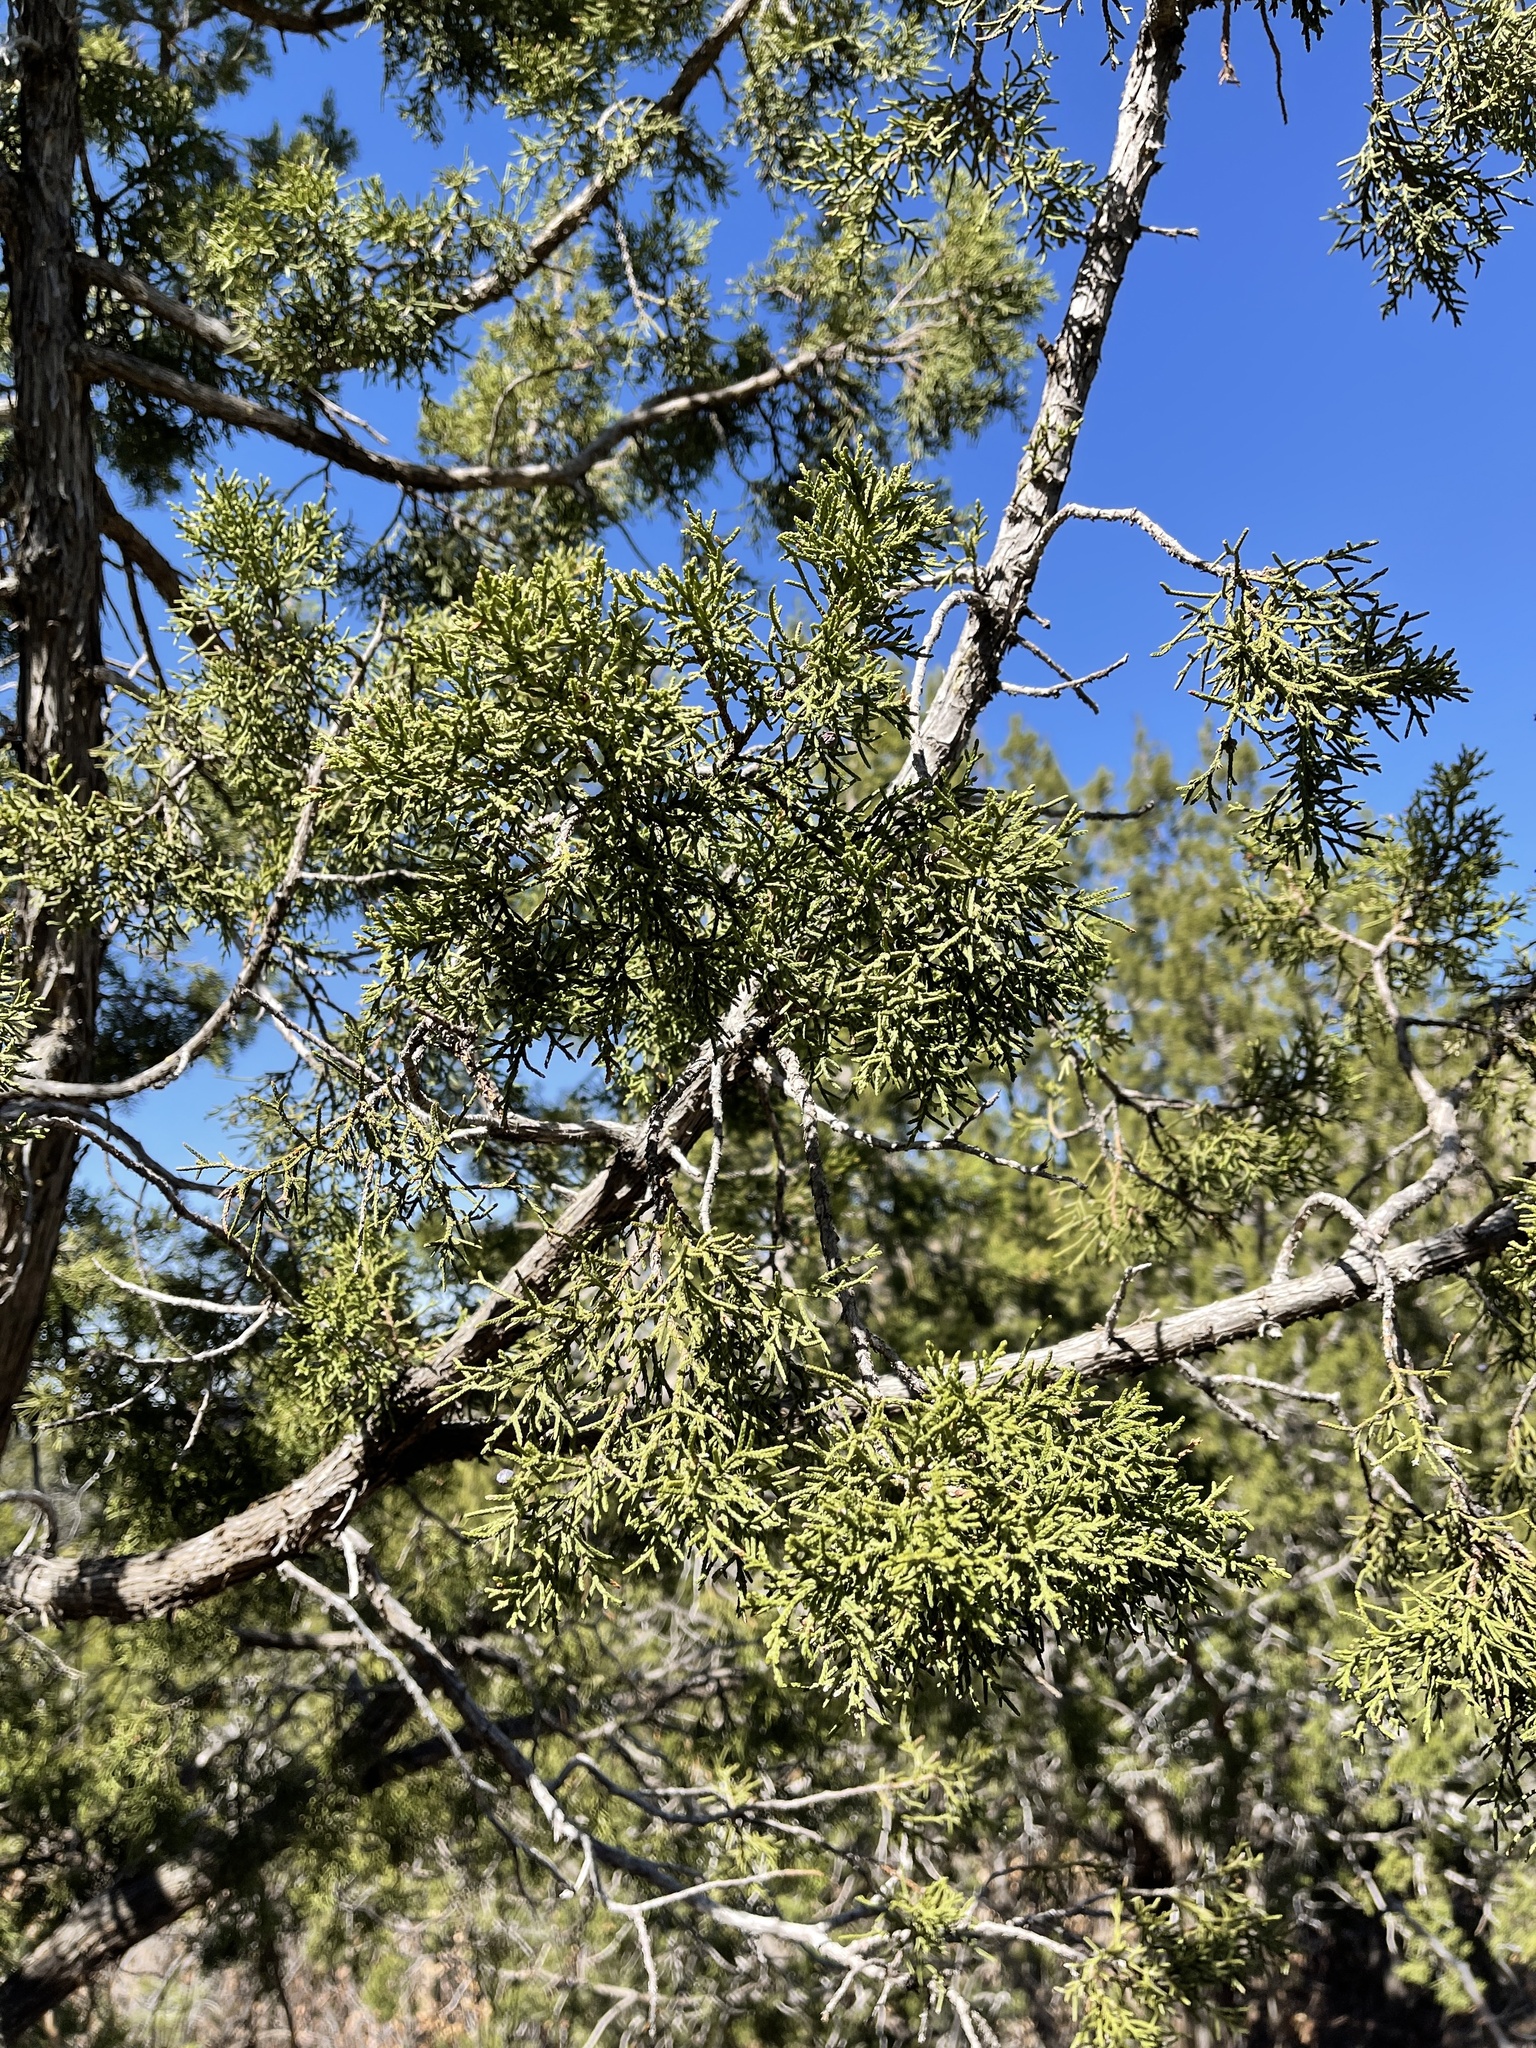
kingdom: Plantae
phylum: Tracheophyta
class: Pinopsida
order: Pinales
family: Cupressaceae
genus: Juniperus
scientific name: Juniperus monosperma
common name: One-seed juniper
